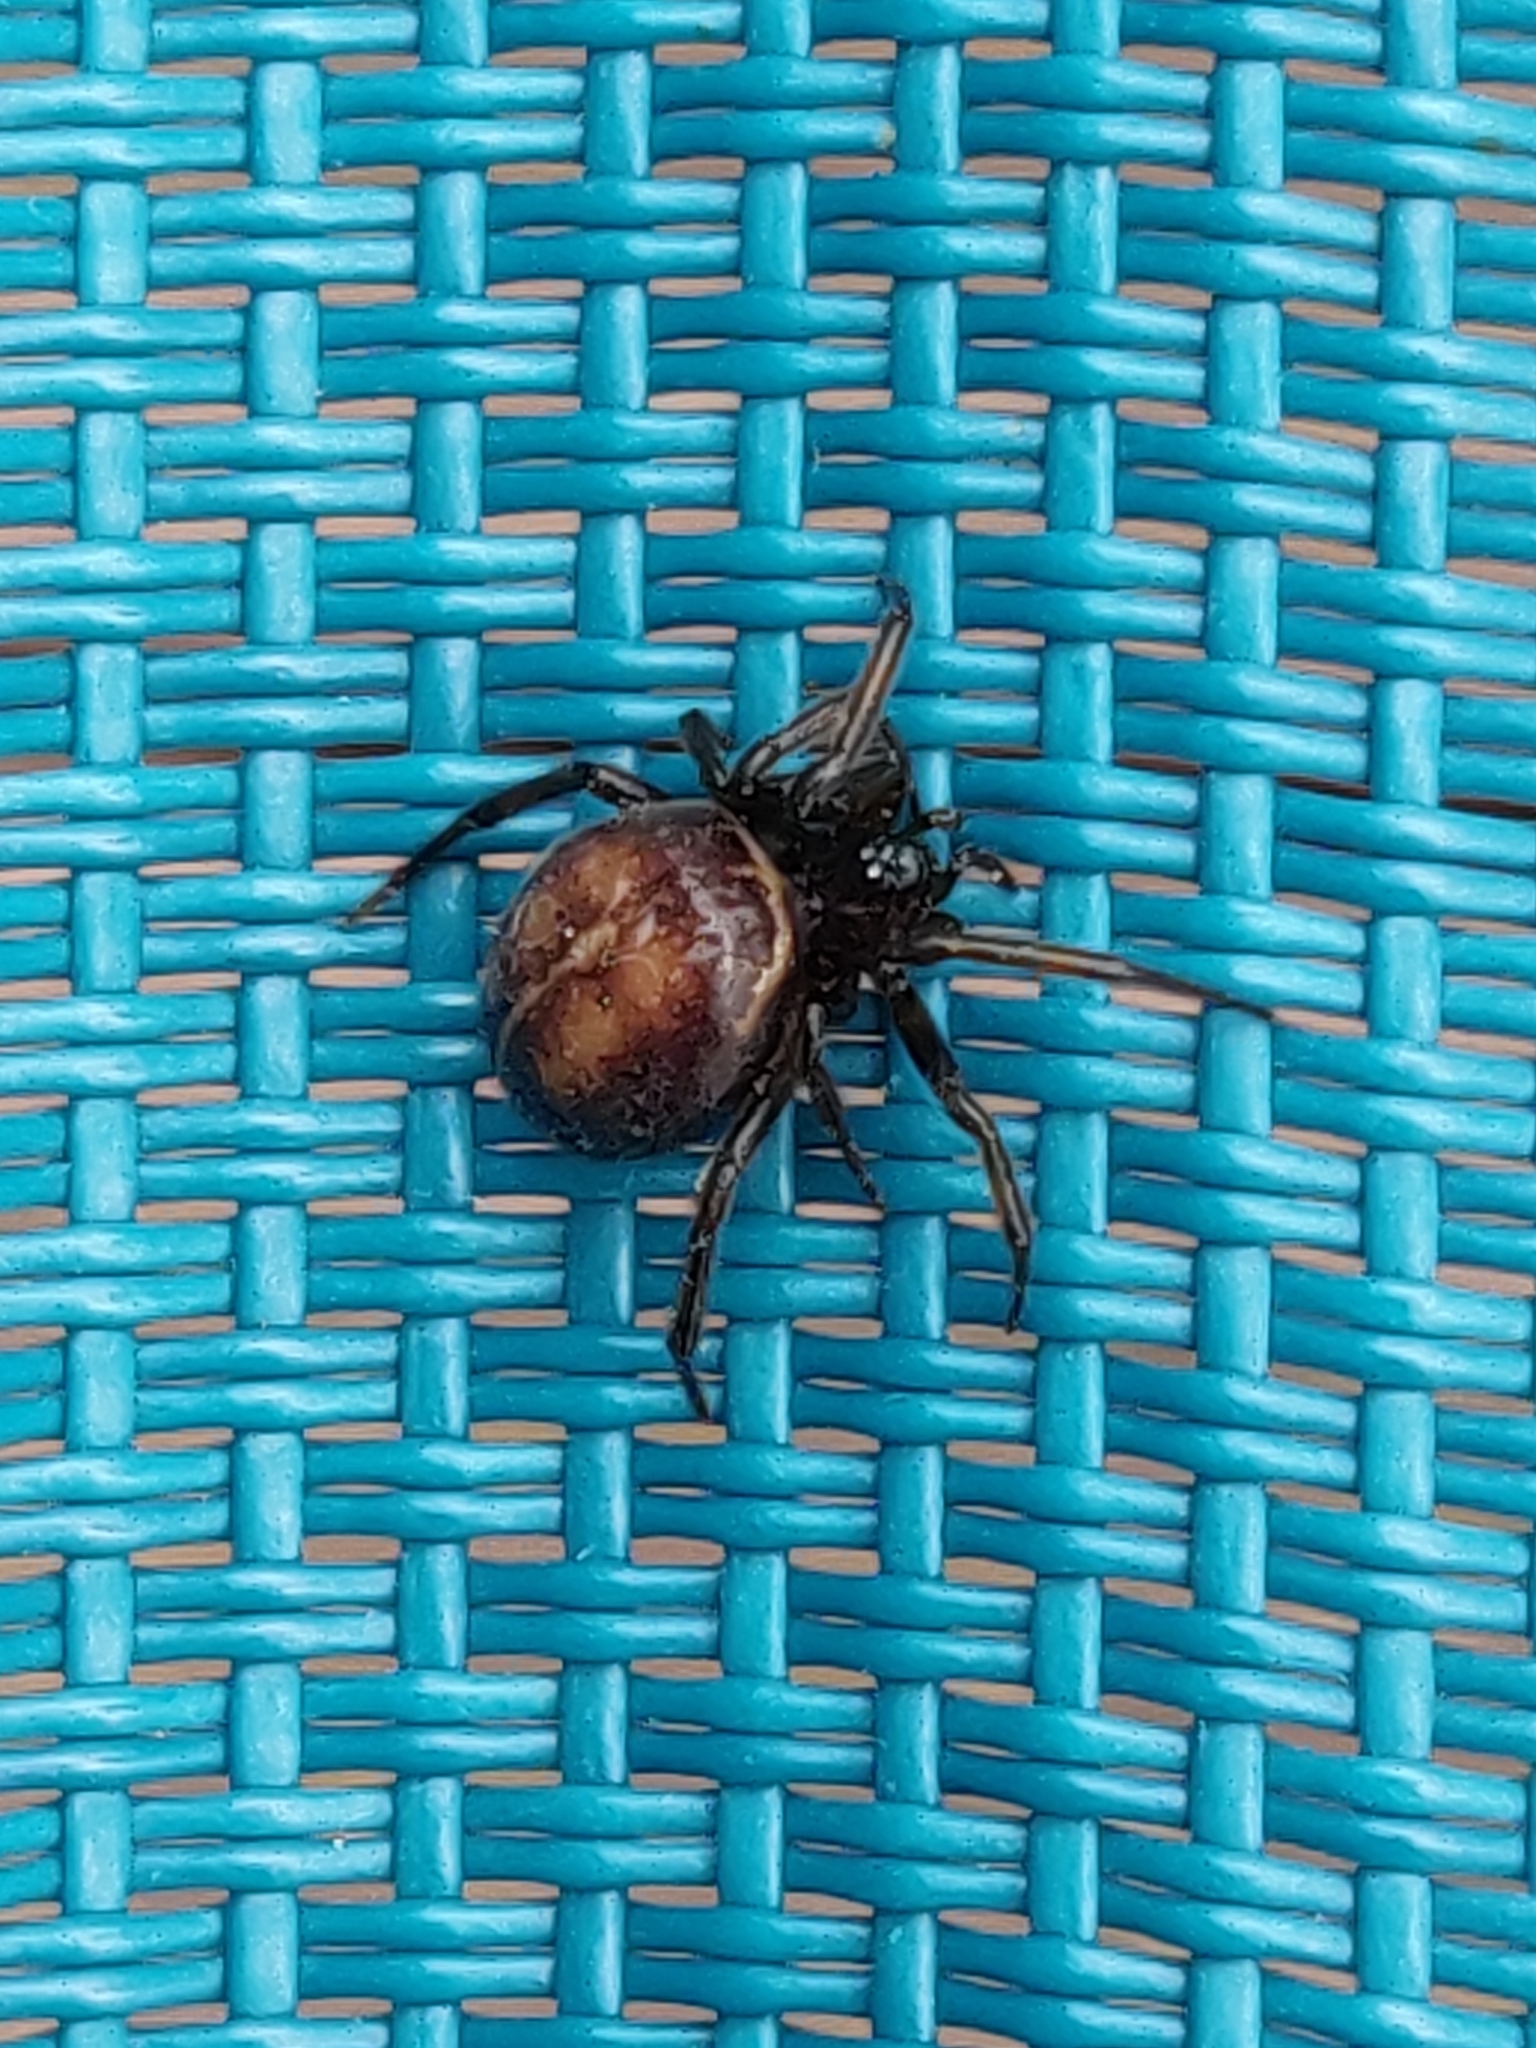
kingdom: Animalia
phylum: Arthropoda
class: Arachnida
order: Araneae
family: Theridiidae
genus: Steatoda
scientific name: Steatoda bipunctata
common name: False widow
